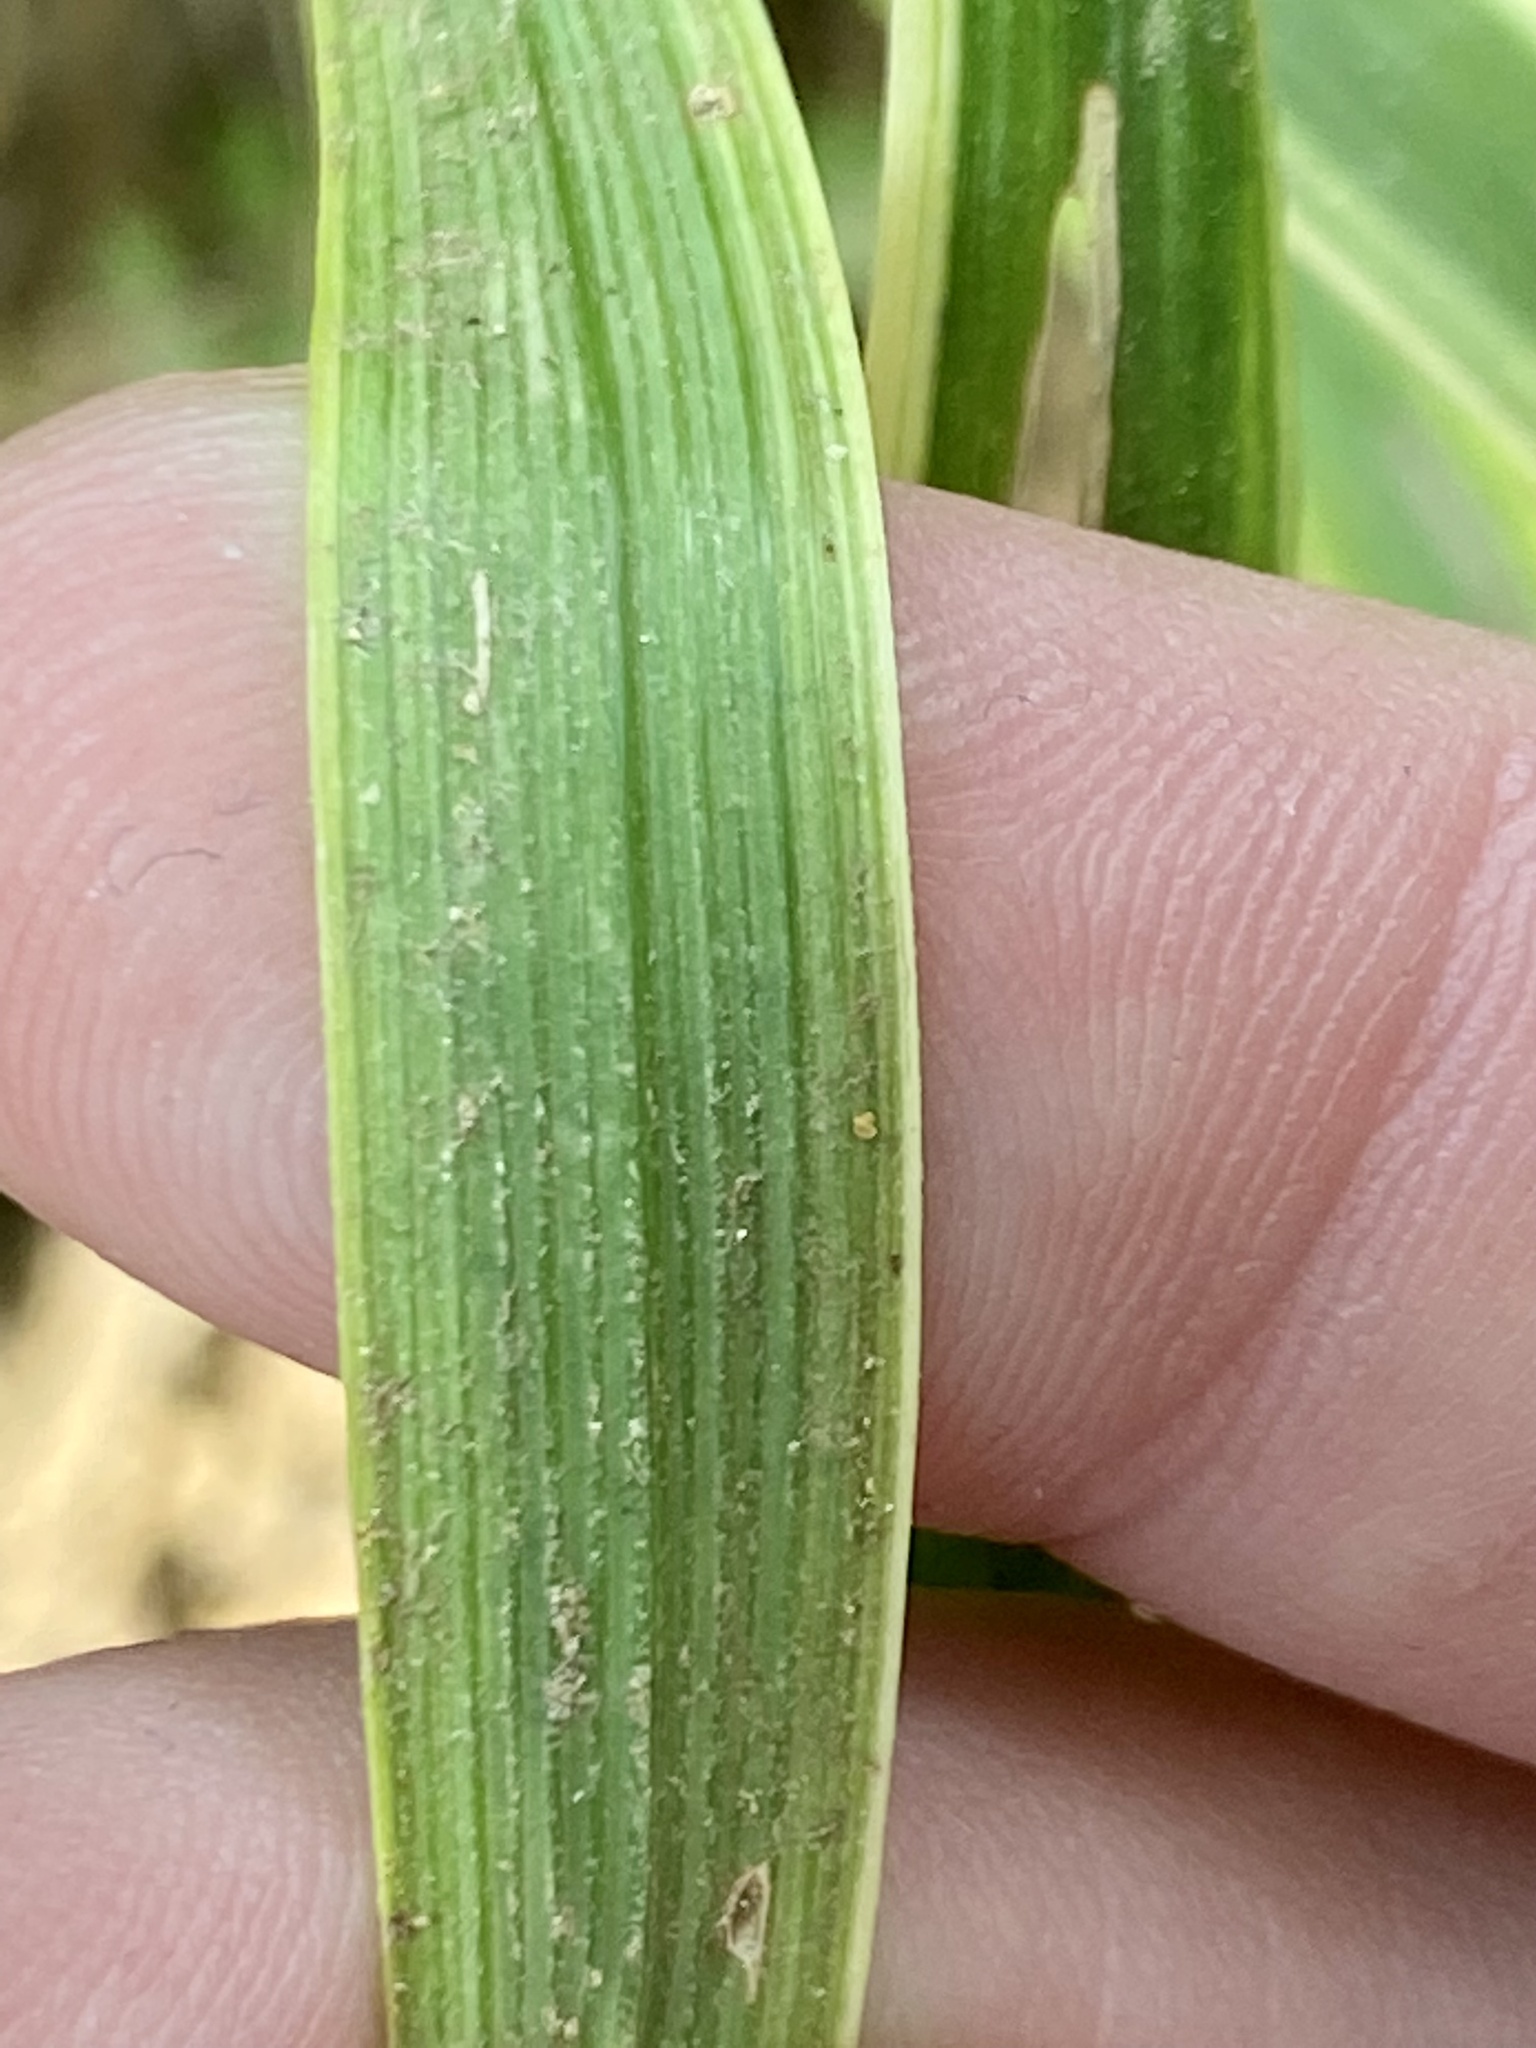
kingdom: Plantae
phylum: Tracheophyta
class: Liliopsida
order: Asparagales
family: Asparagaceae
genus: Liriope
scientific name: Liriope muscari
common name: Big blue lilyturf
